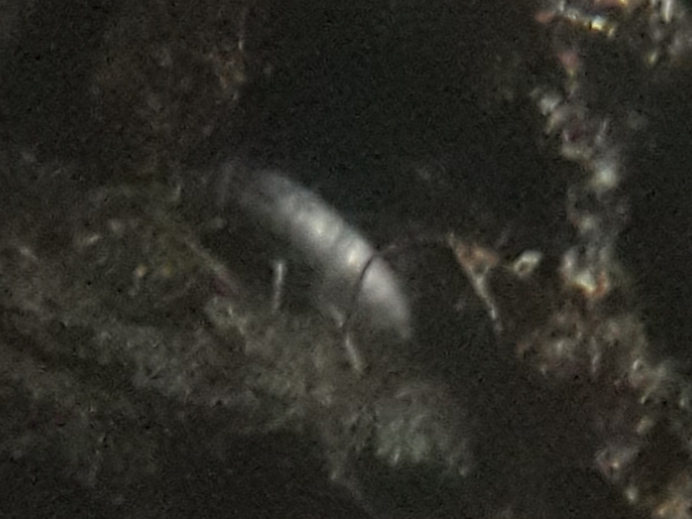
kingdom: Animalia
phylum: Arthropoda
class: Collembola
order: Entomobryomorpha
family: Tomoceridae
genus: Tomocerus
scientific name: Tomocerus minor
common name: Springtail
